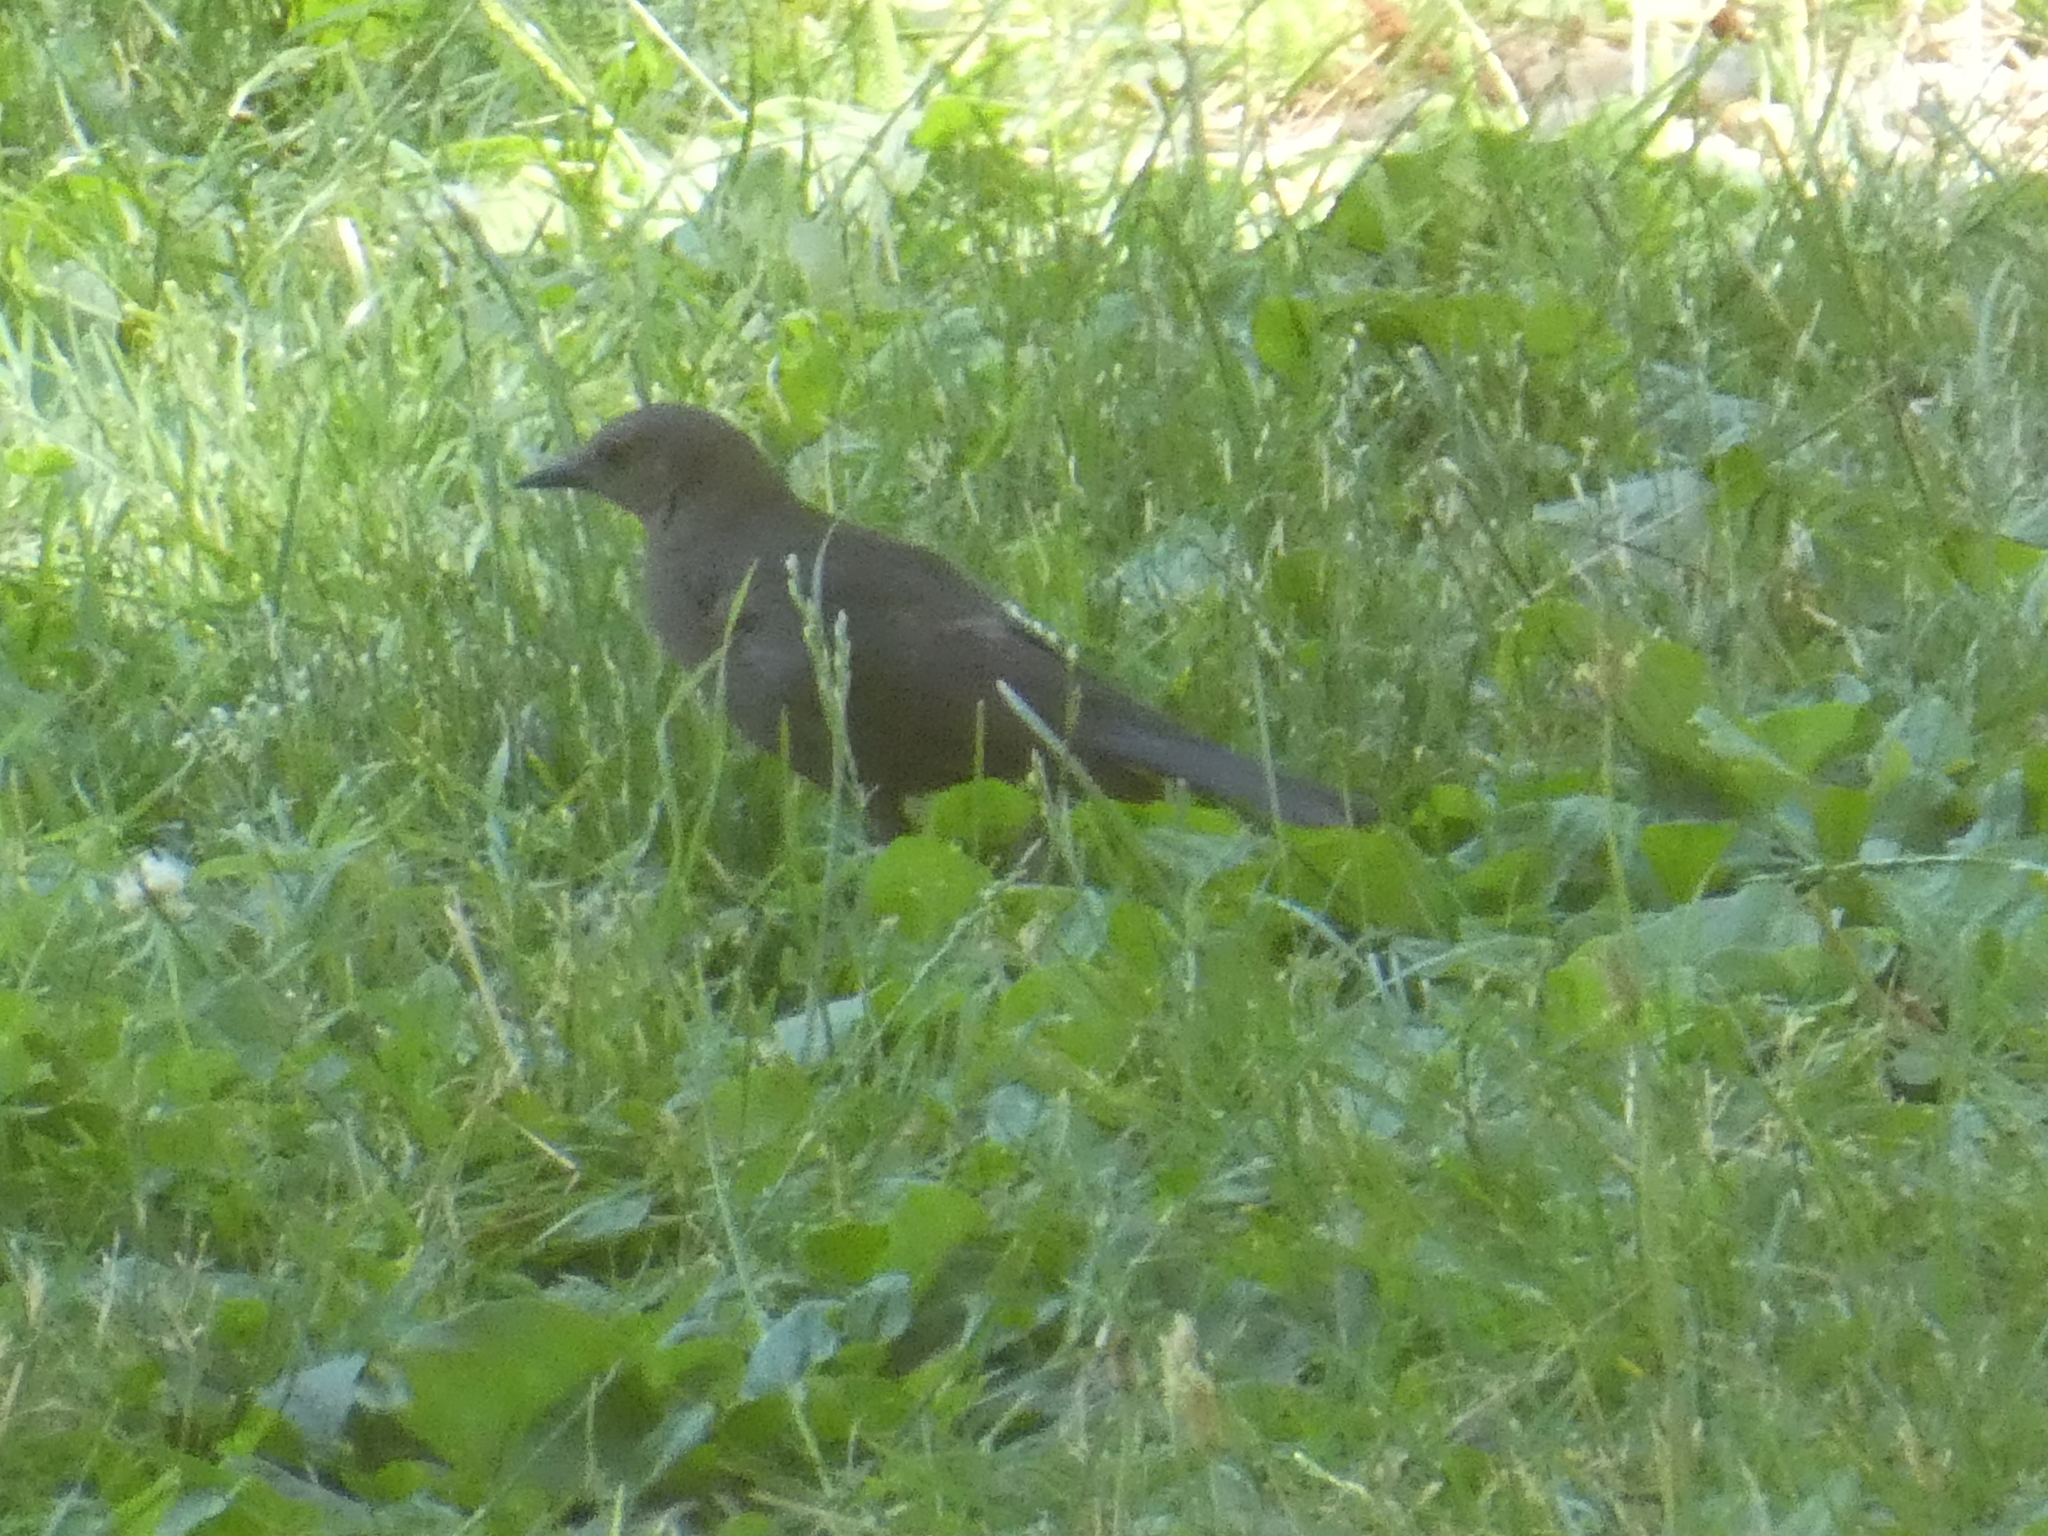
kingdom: Animalia
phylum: Chordata
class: Aves
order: Passeriformes
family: Icteridae
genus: Euphagus
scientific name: Euphagus cyanocephalus
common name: Brewer's blackbird
